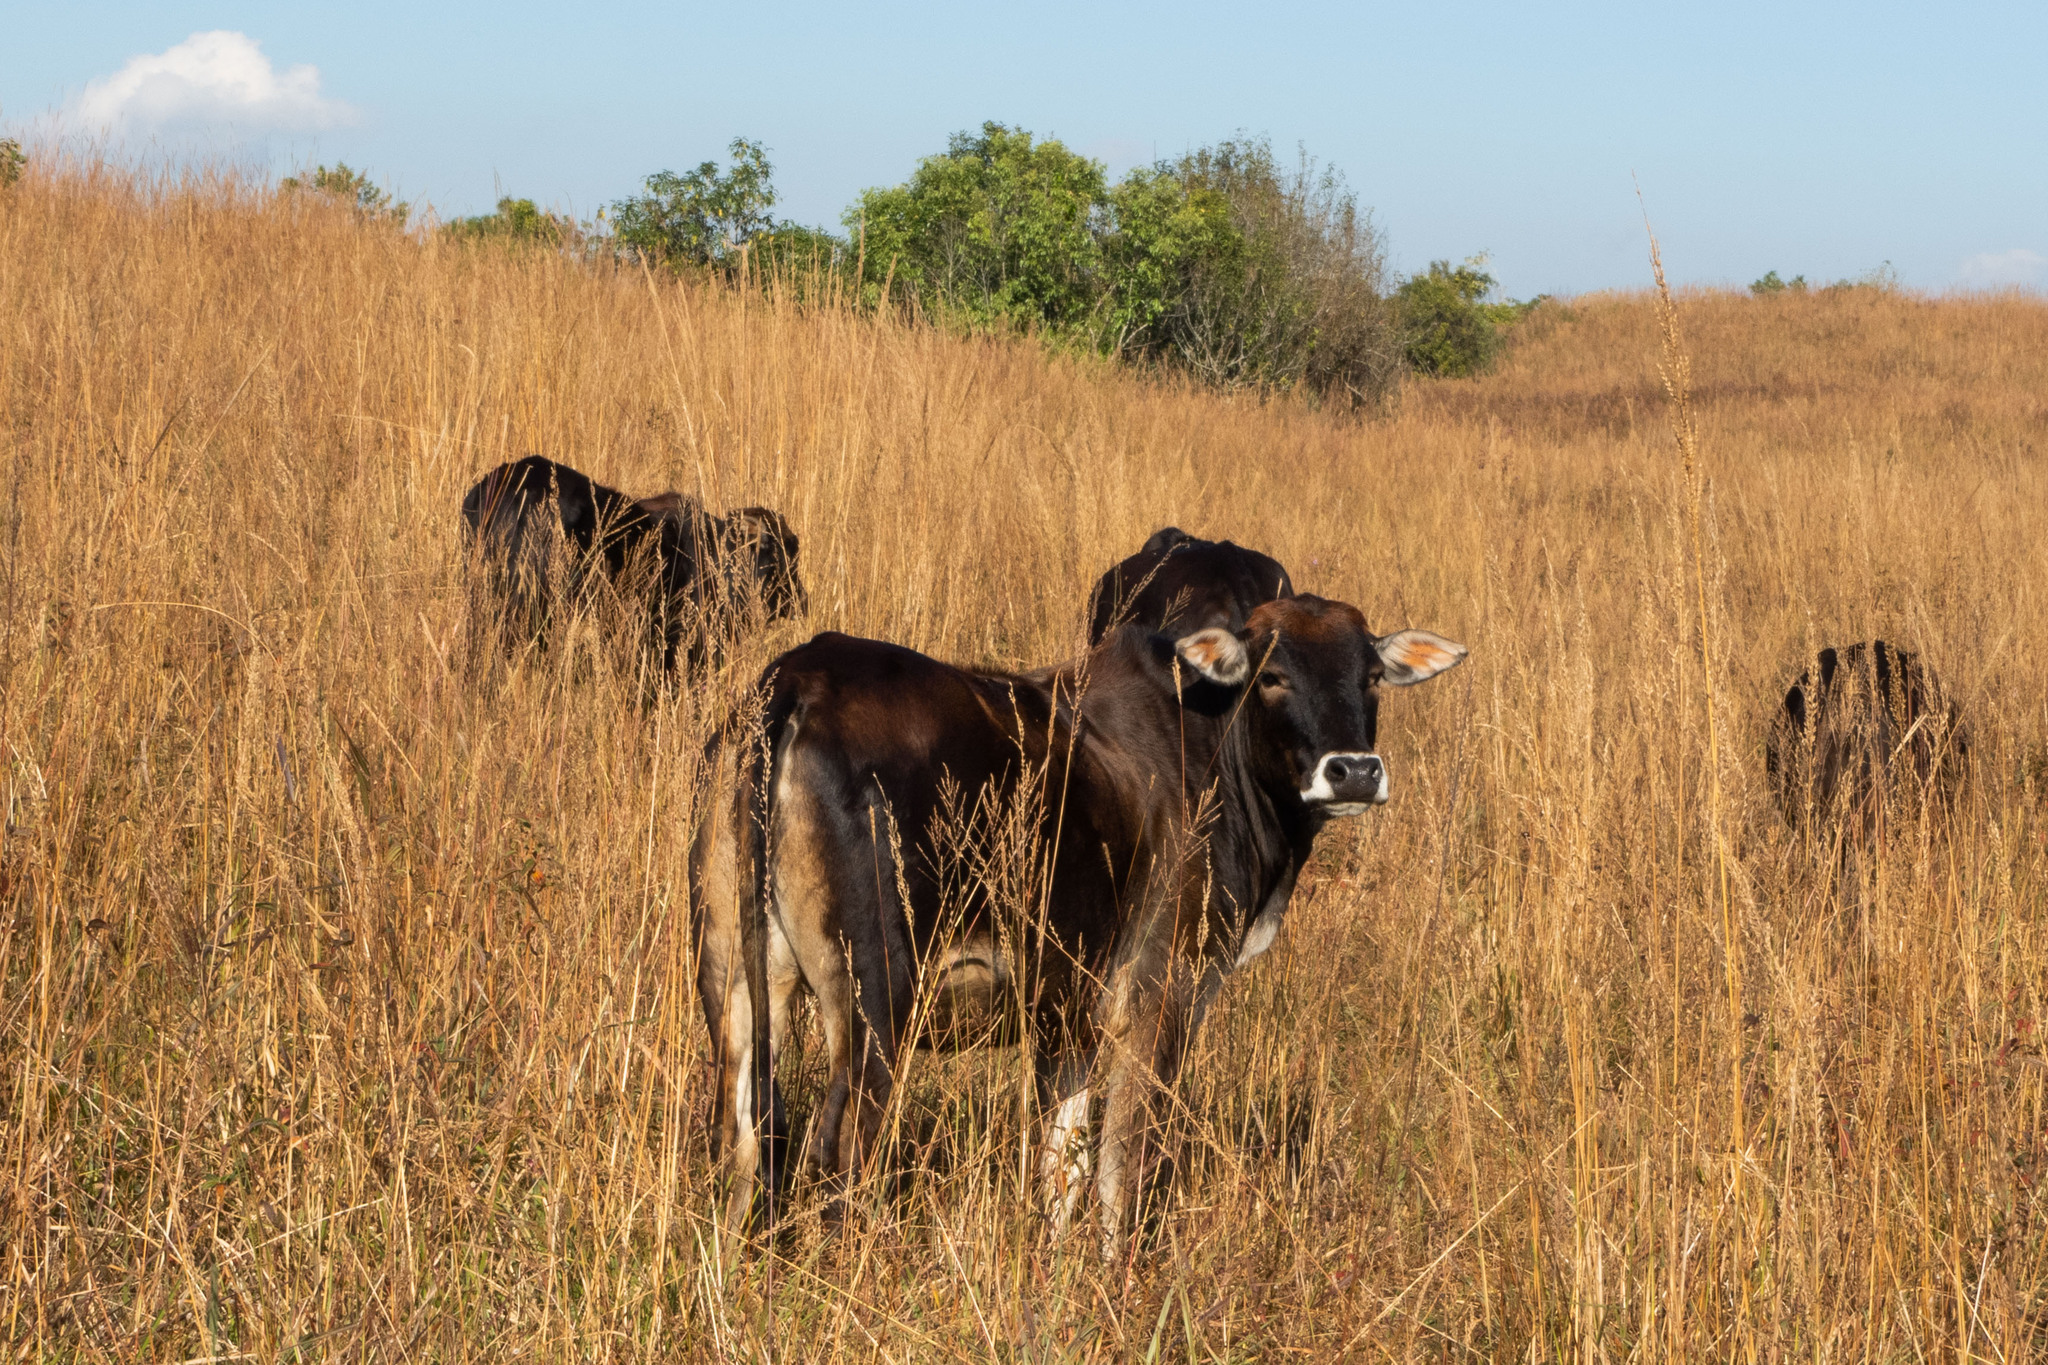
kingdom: Animalia
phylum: Chordata
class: Mammalia
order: Artiodactyla
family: Bovidae
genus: Bos
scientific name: Bos taurus
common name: Domesticated cattle
